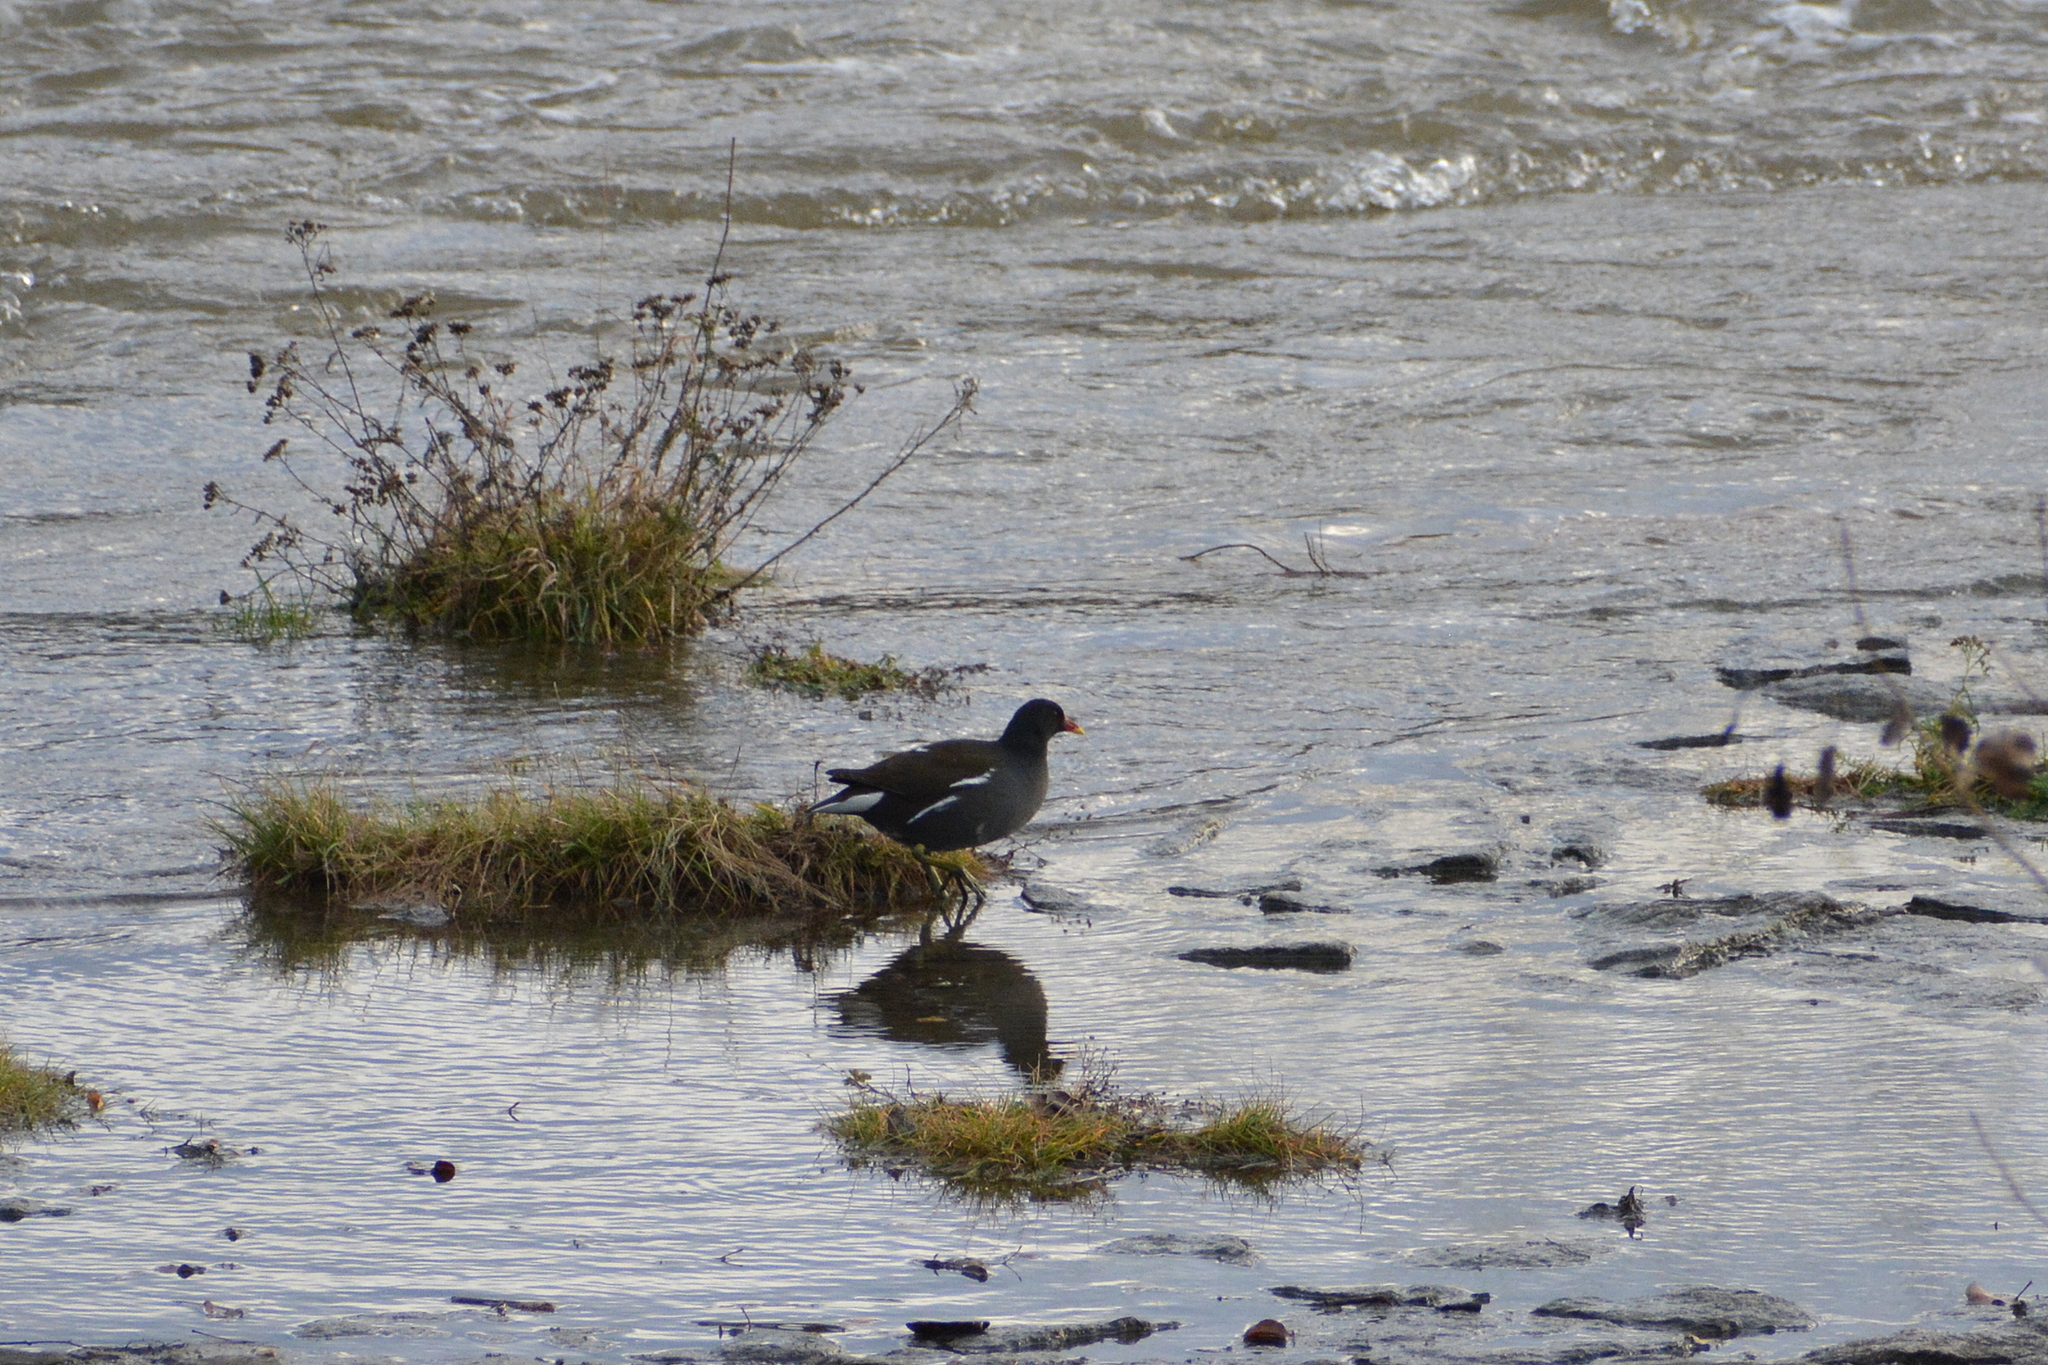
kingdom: Animalia
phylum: Chordata
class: Aves
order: Gruiformes
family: Rallidae
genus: Gallinula
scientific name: Gallinula chloropus
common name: Common moorhen
